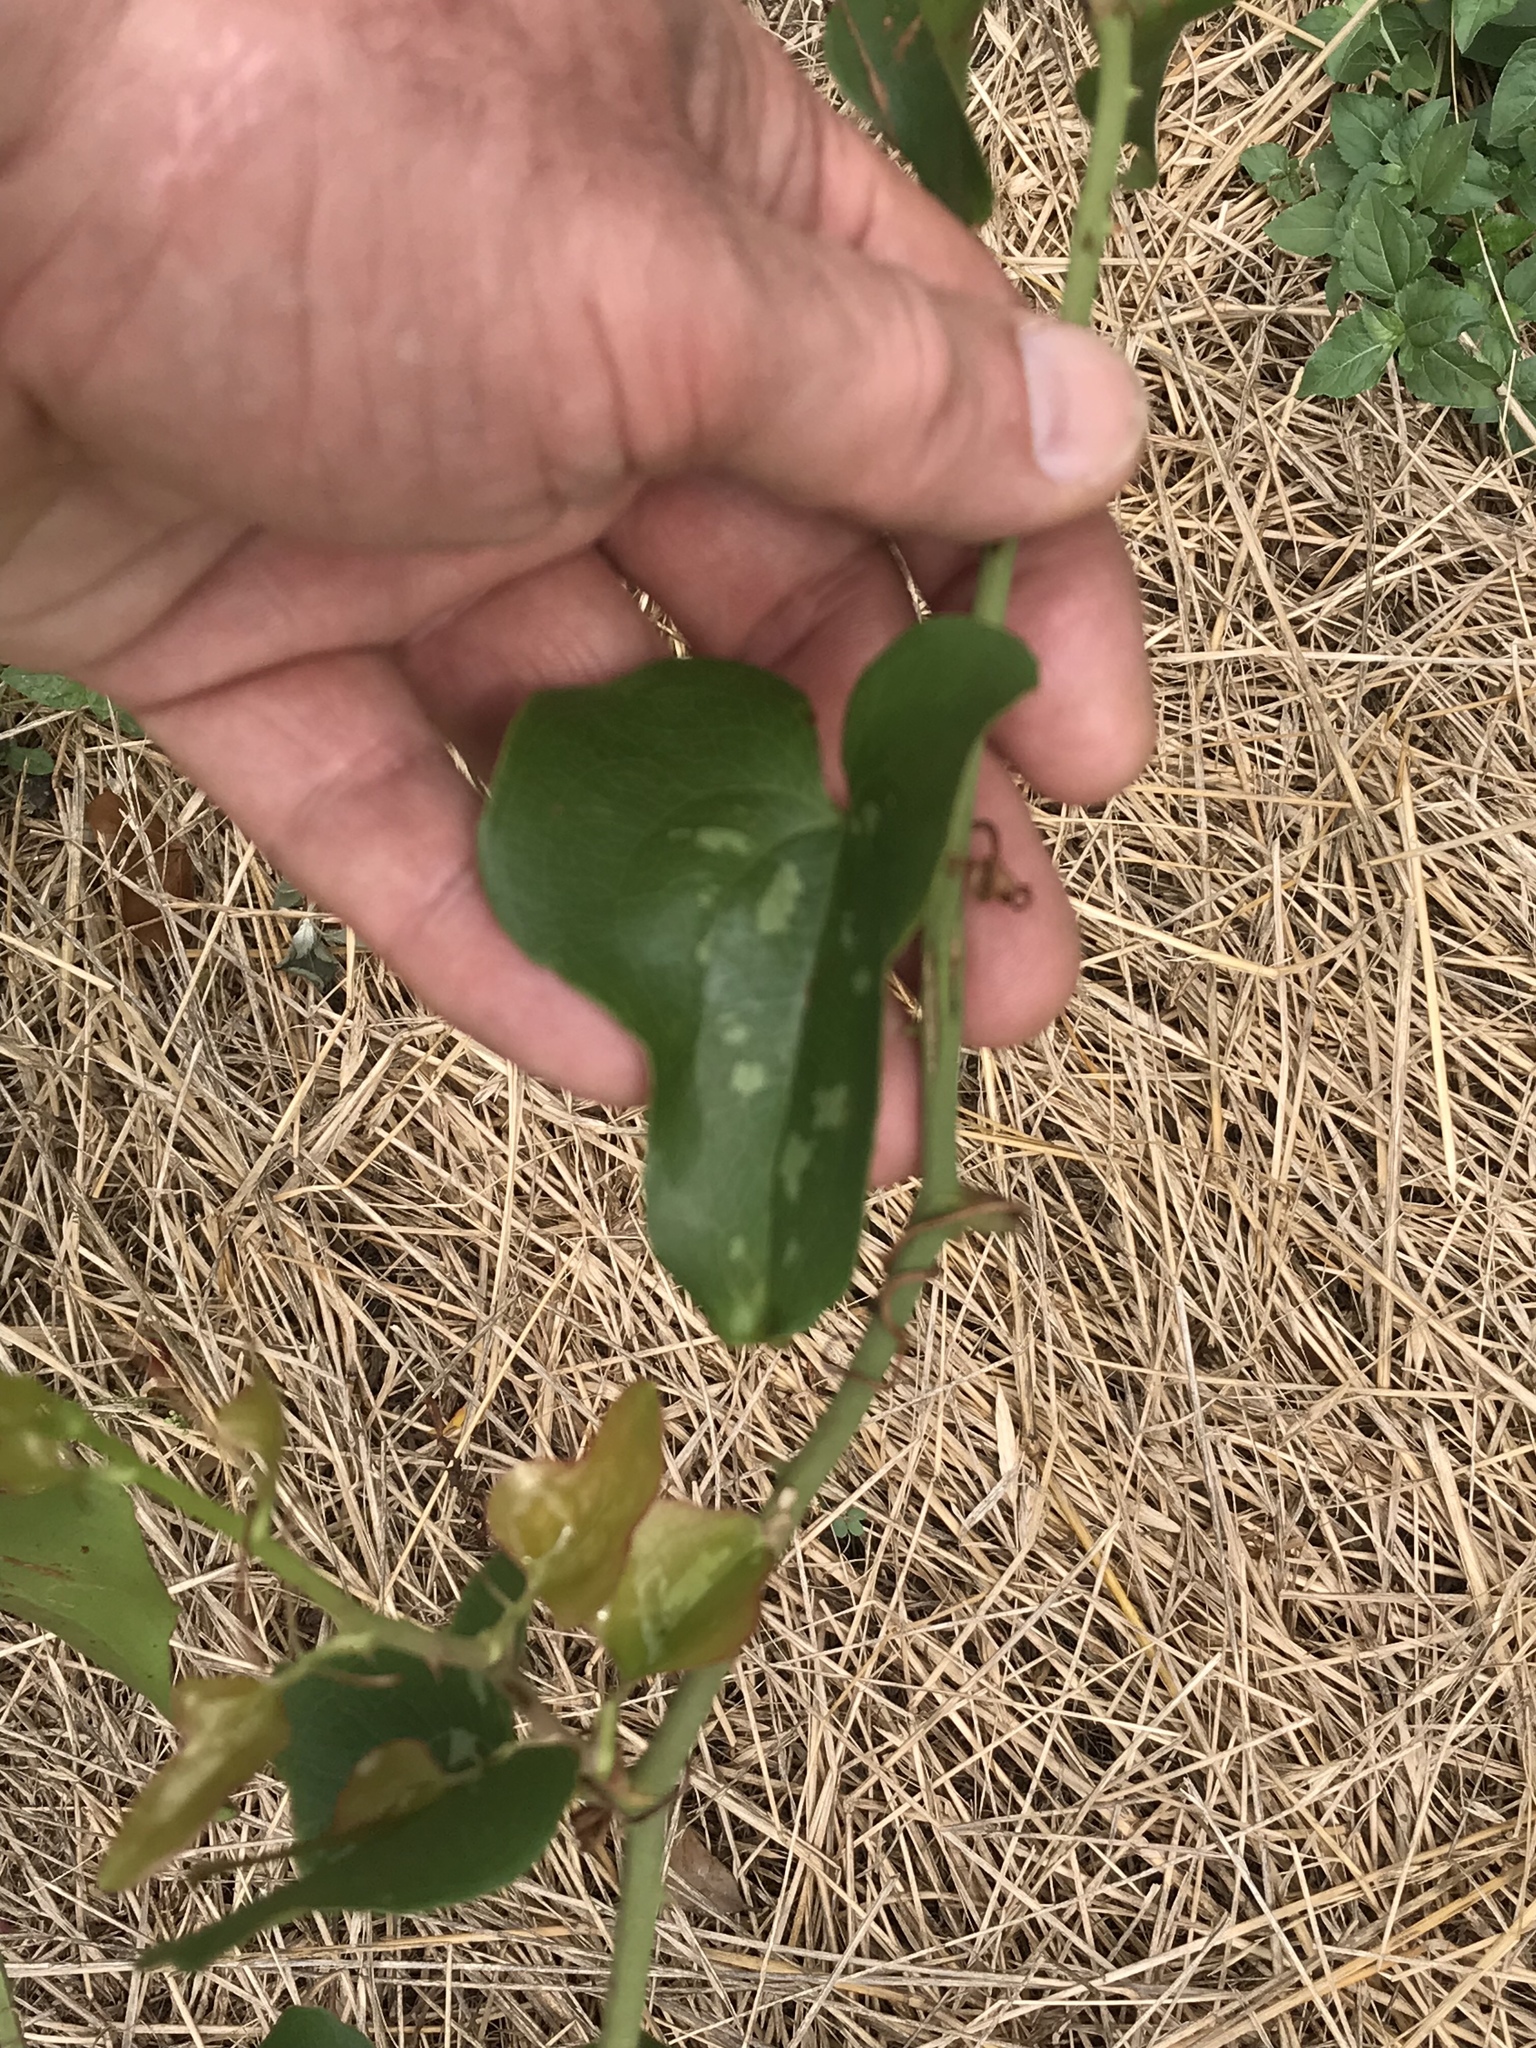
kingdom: Plantae
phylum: Tracheophyta
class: Liliopsida
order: Liliales
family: Smilacaceae
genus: Smilax
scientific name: Smilax bona-nox
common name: Catbrier
